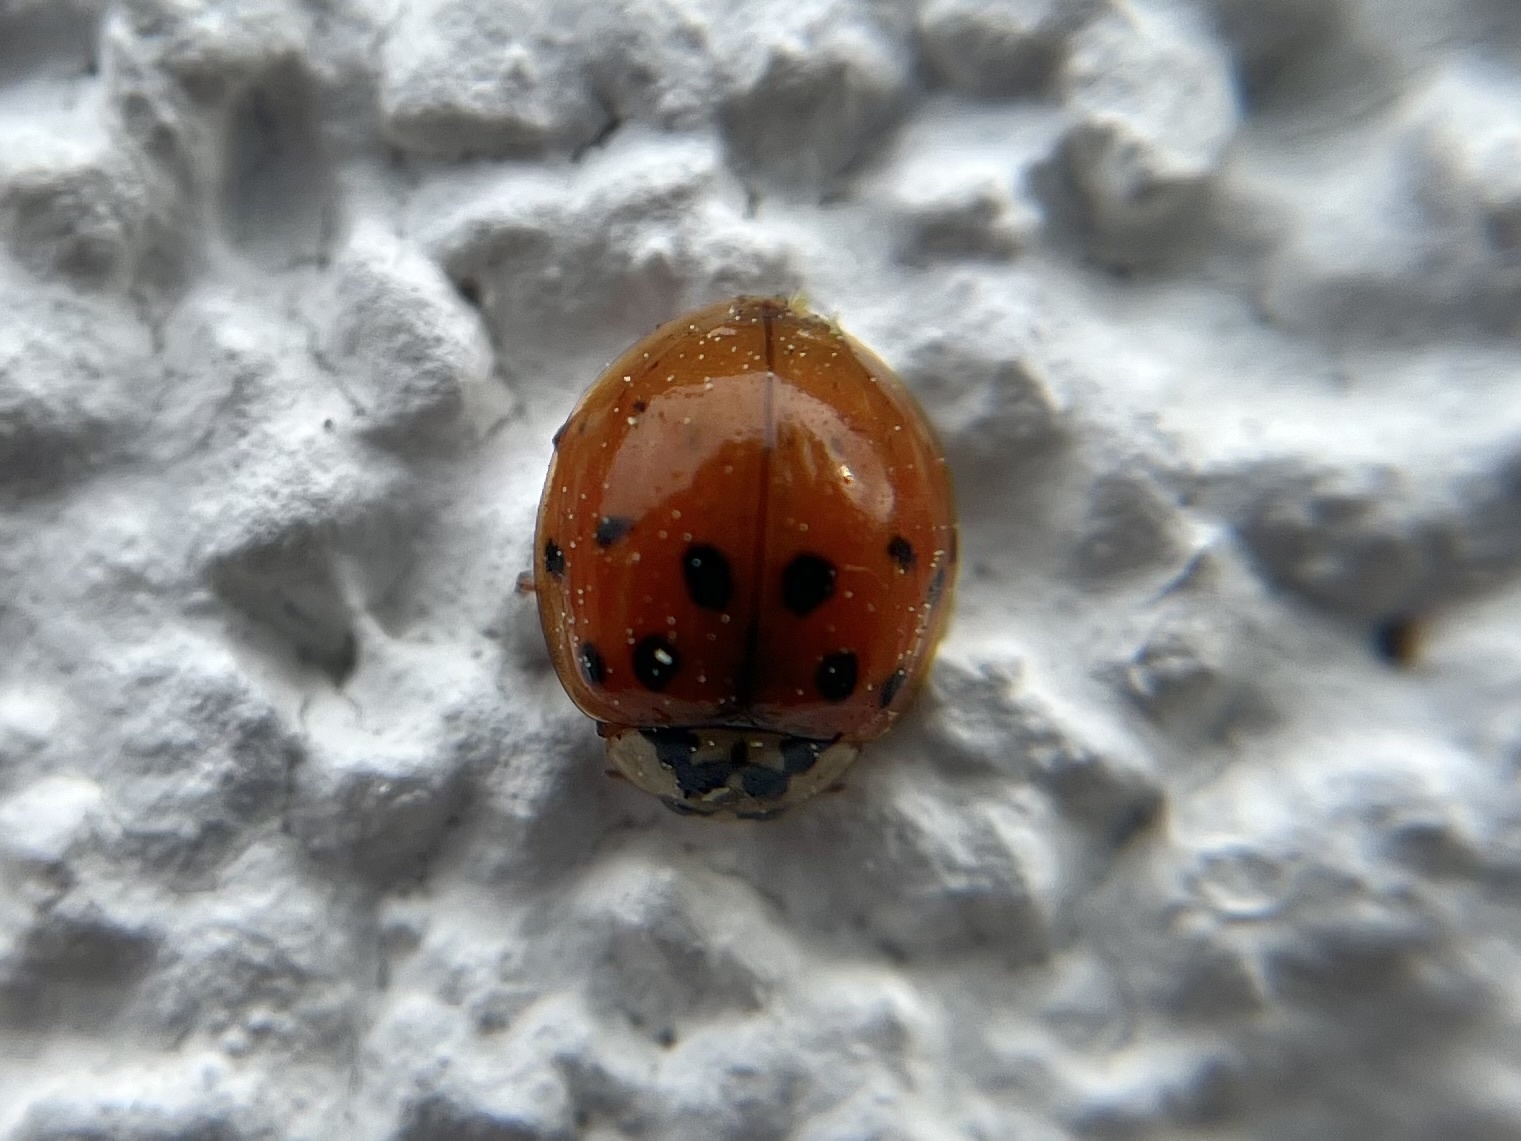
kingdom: Animalia
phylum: Arthropoda
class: Insecta
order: Coleoptera
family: Coccinellidae
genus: Harmonia
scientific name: Harmonia axyridis
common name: Harlequin ladybird
